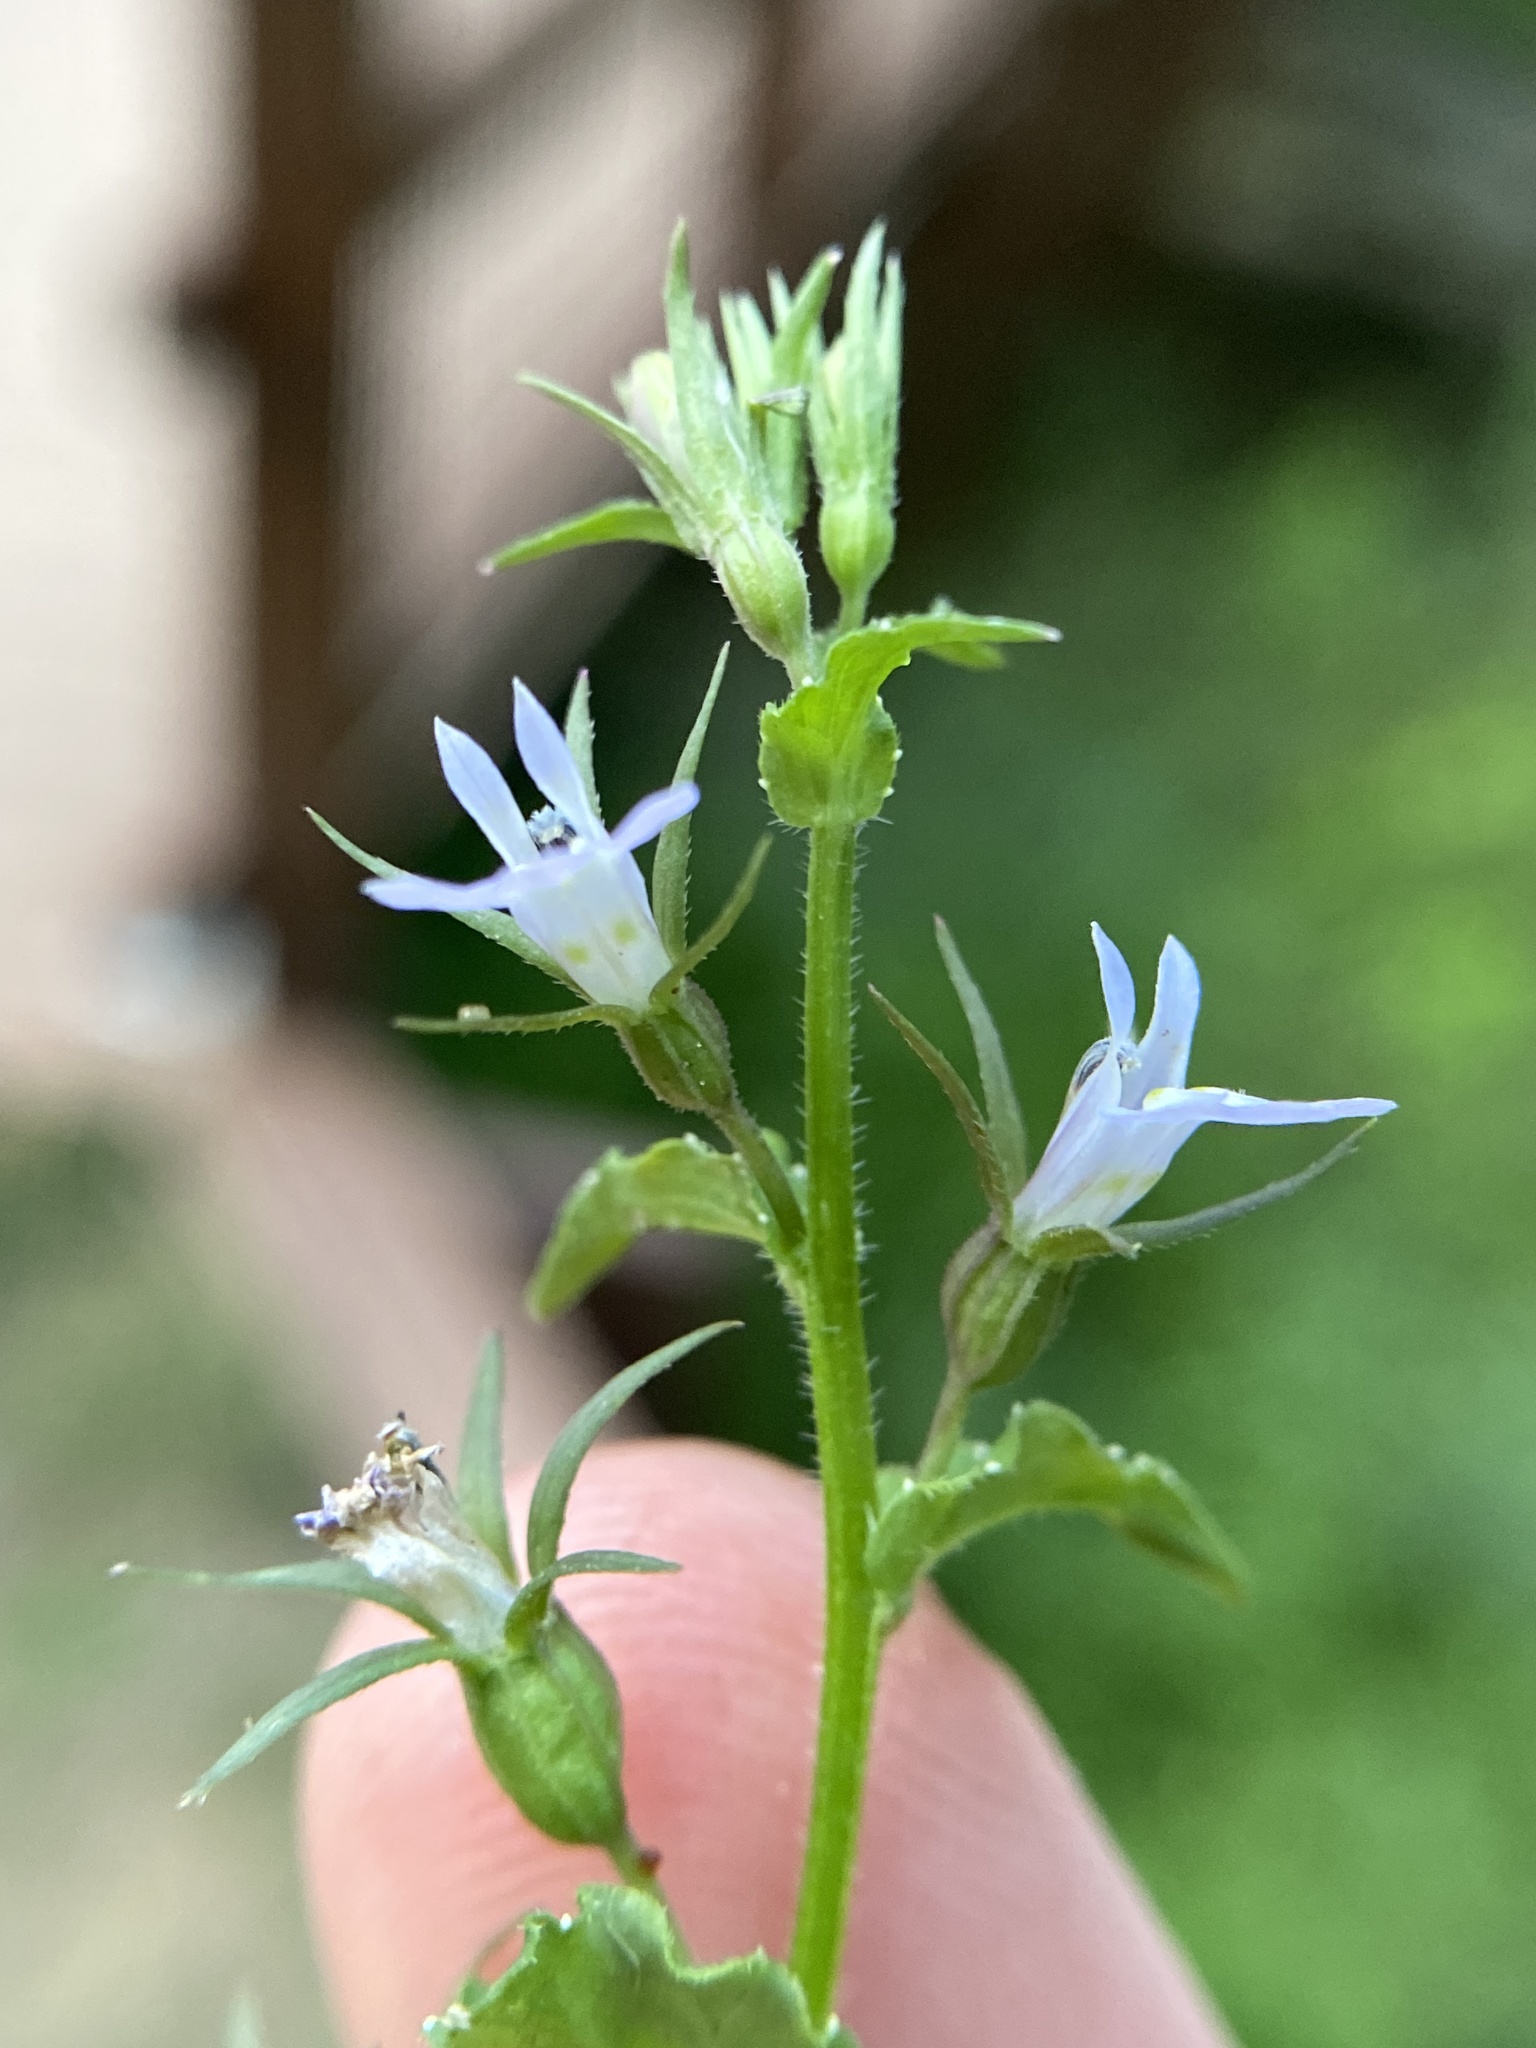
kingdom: Plantae
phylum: Tracheophyta
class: Magnoliopsida
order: Asterales
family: Campanulaceae
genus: Lobelia
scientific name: Lobelia inflata
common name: Indian tobacco
